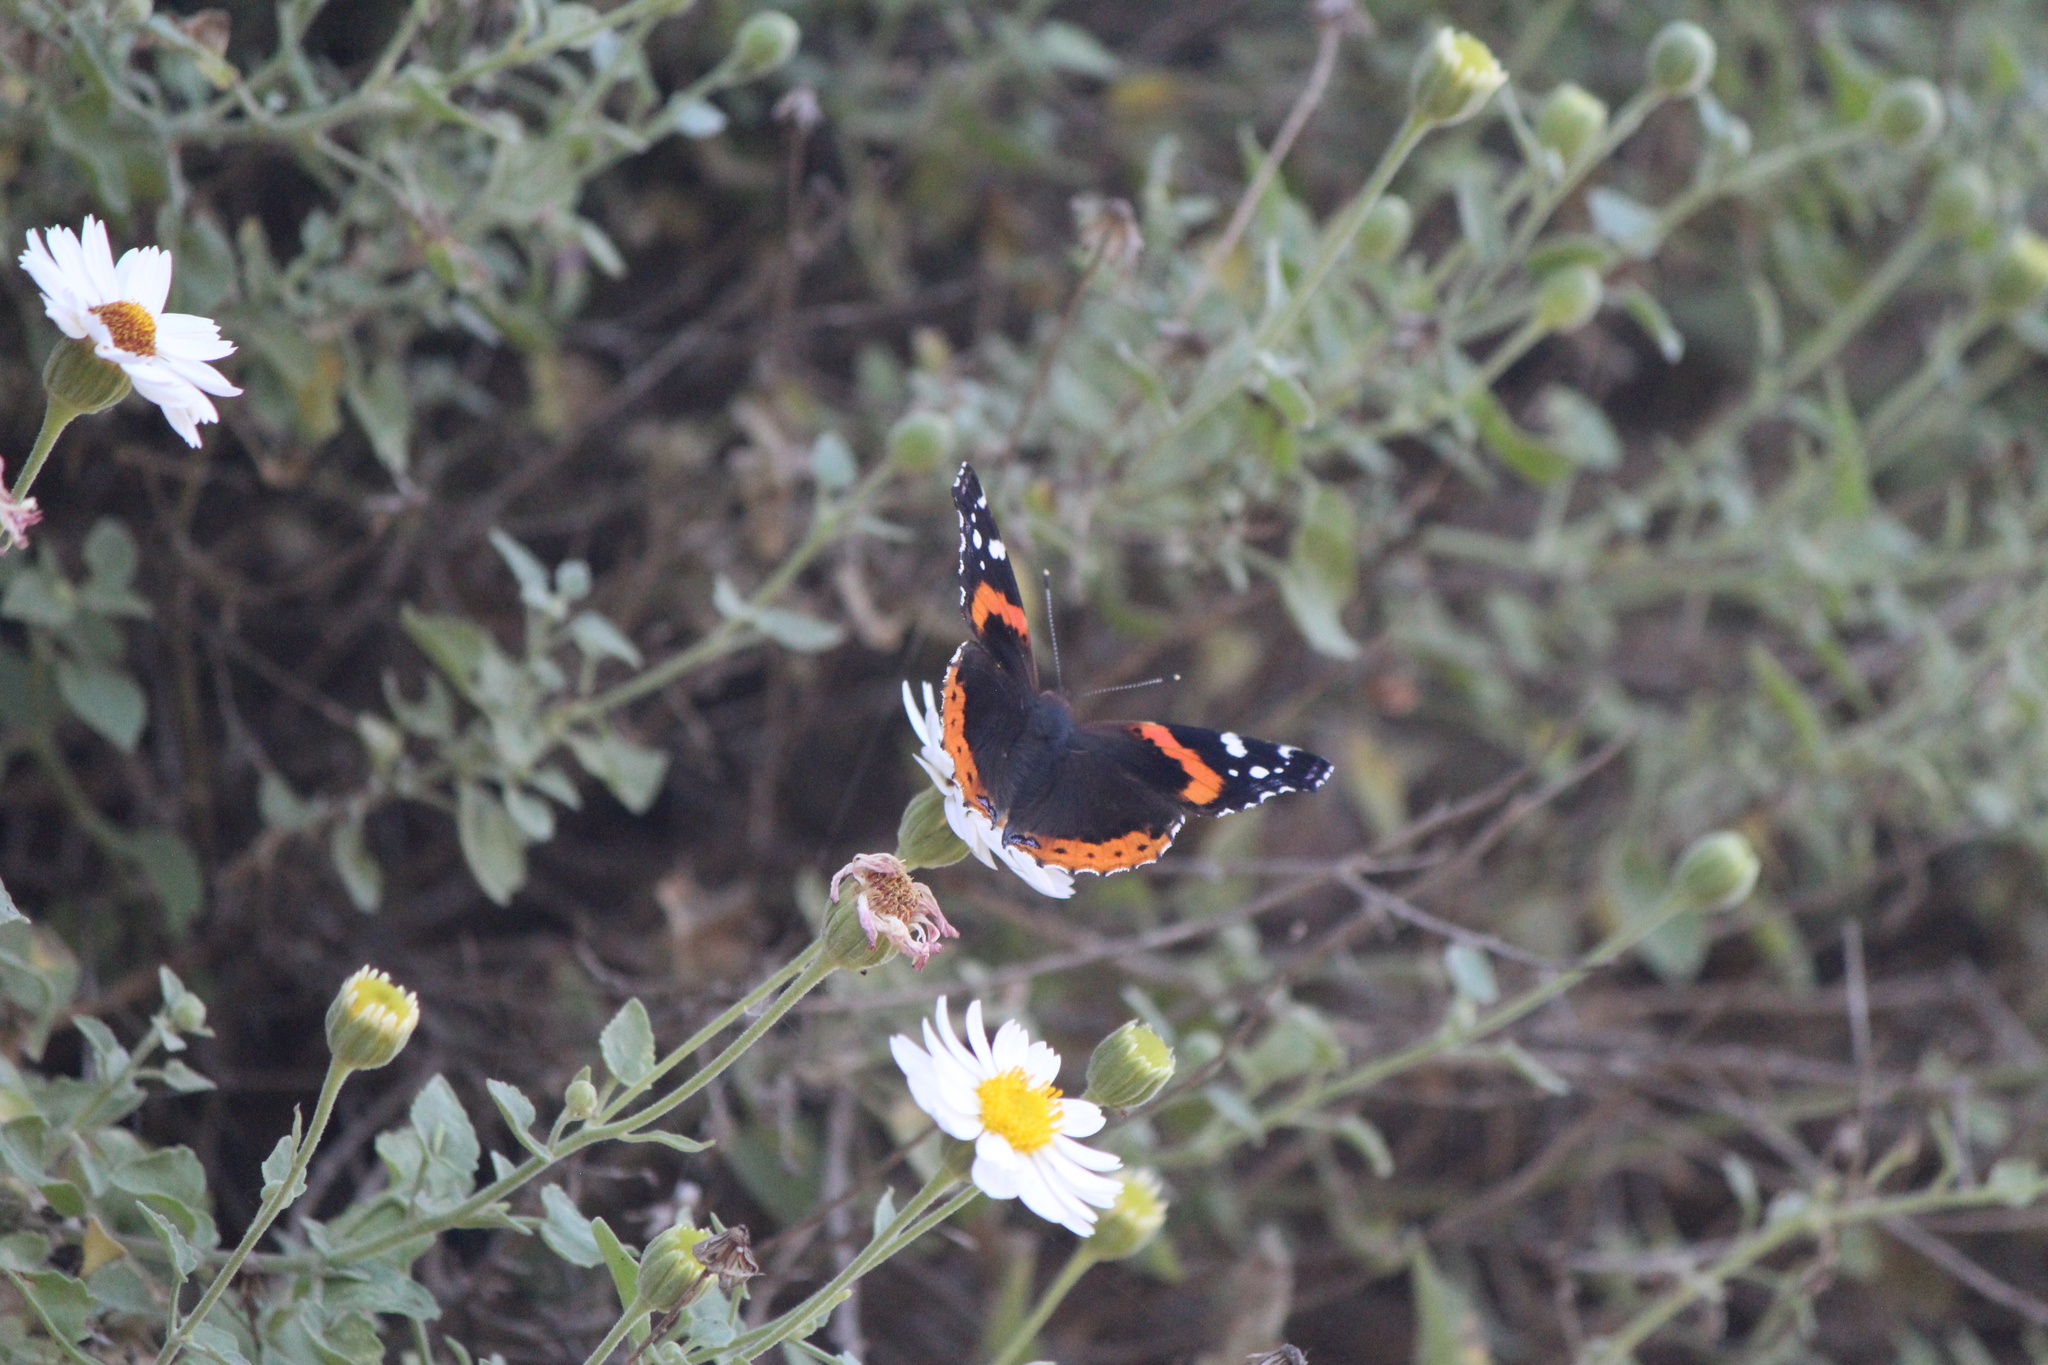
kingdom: Animalia
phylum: Arthropoda
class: Insecta
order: Lepidoptera
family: Nymphalidae
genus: Vanessa
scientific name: Vanessa atalanta
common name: Red admiral
